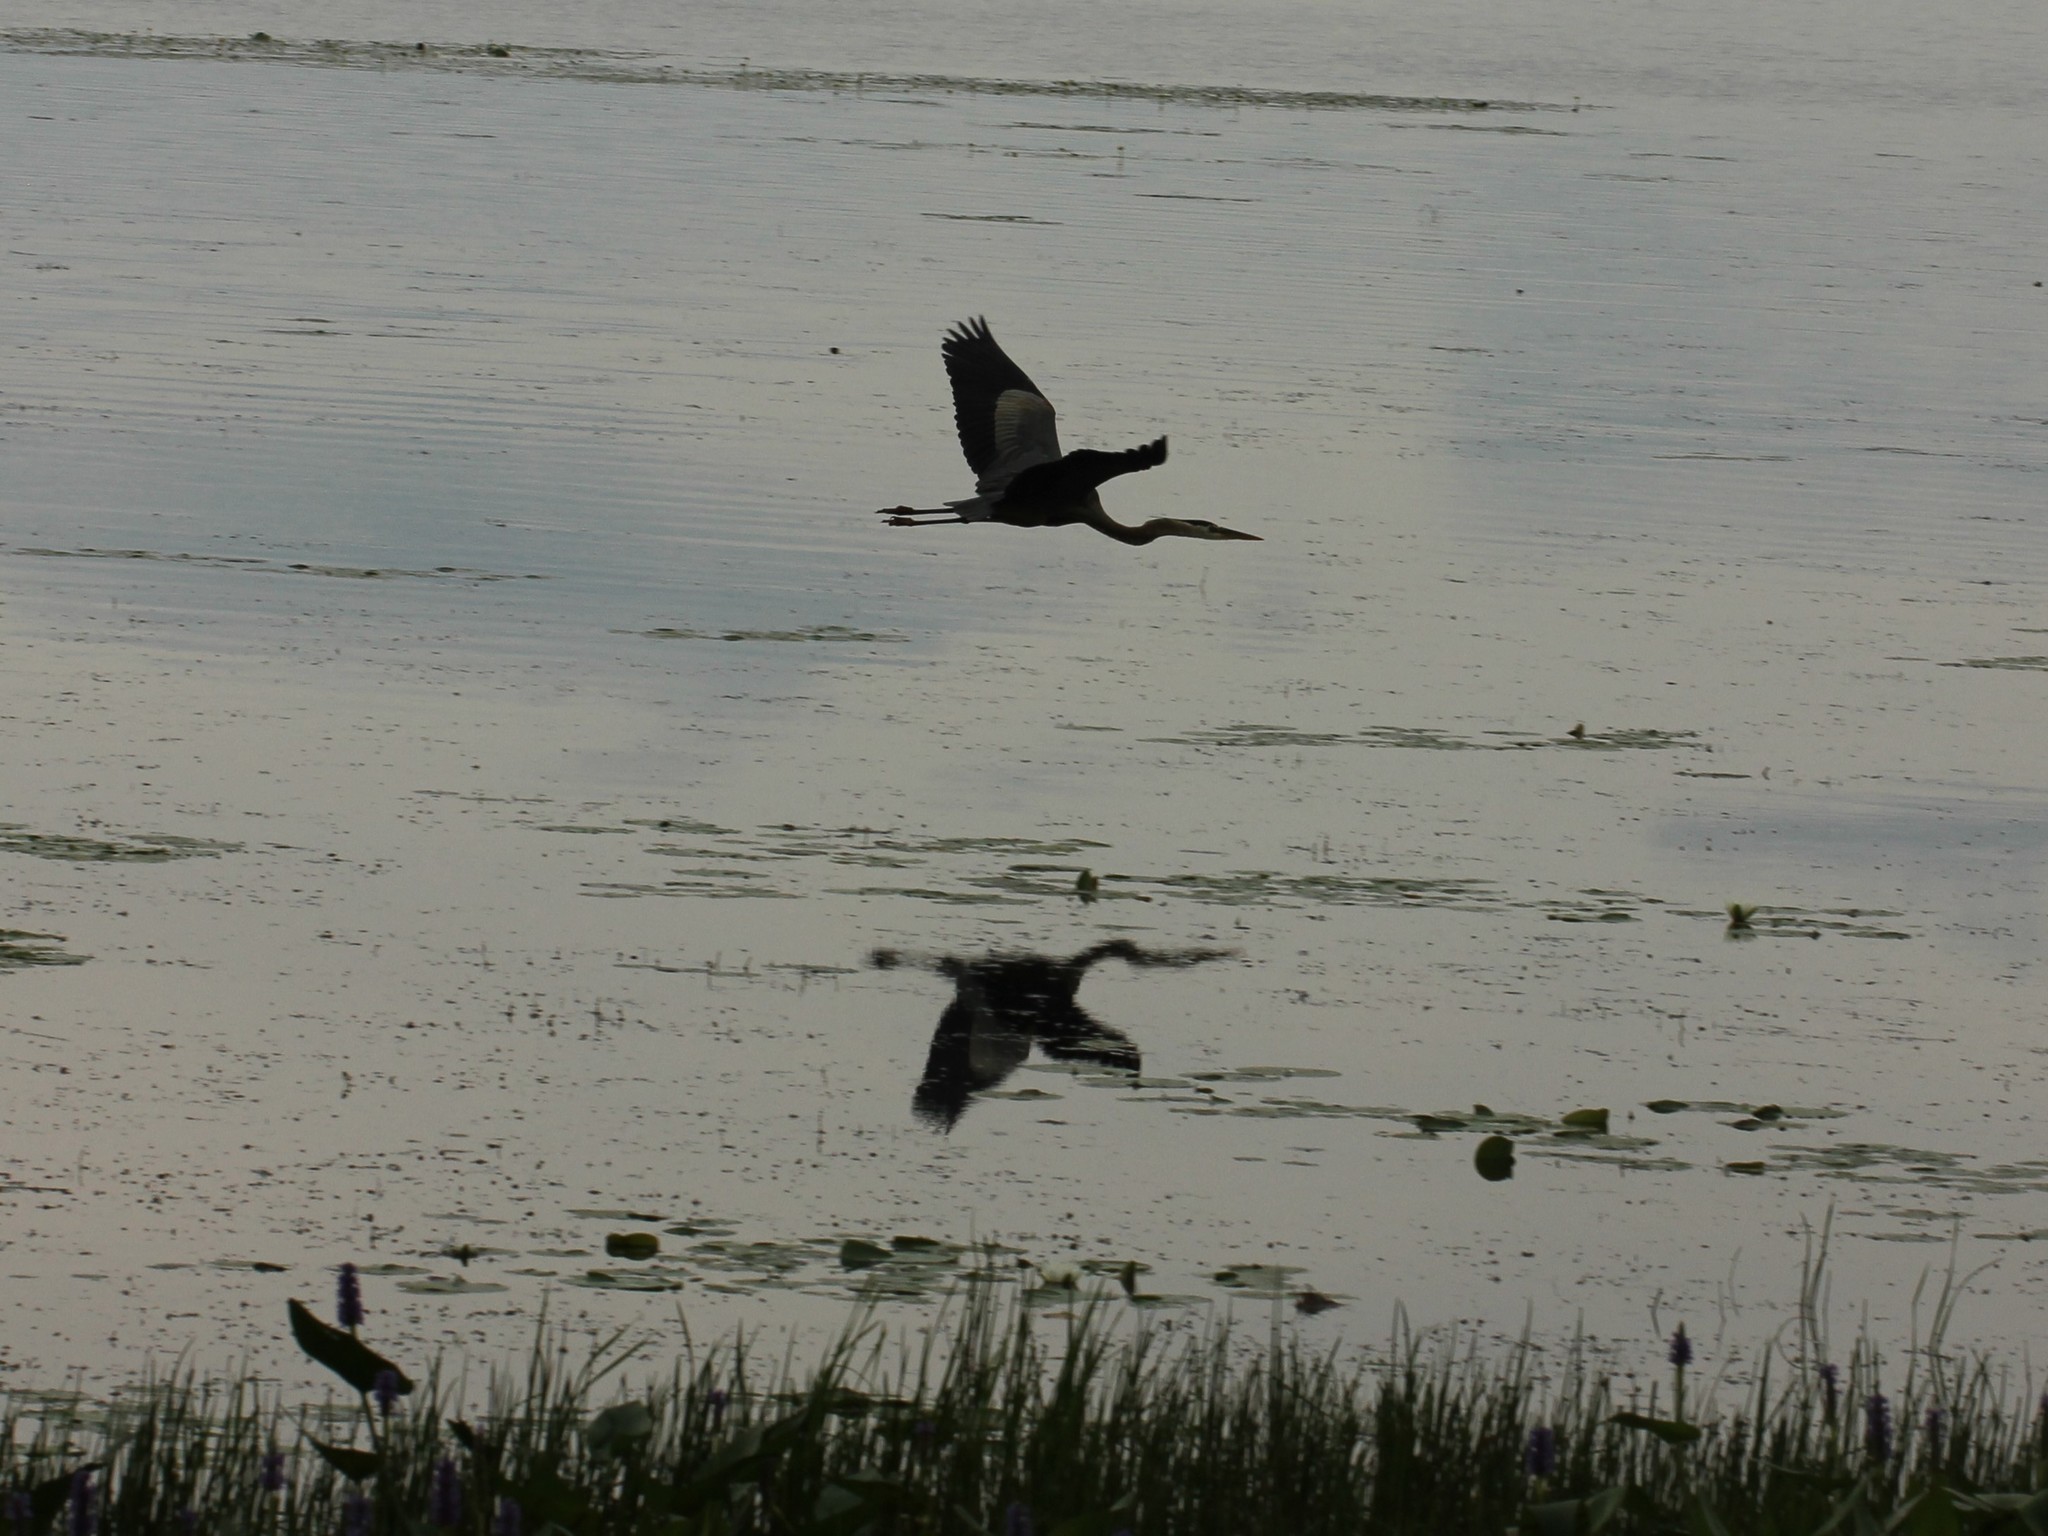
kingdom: Animalia
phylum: Chordata
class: Aves
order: Pelecaniformes
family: Ardeidae
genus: Ardea
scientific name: Ardea herodias
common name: Great blue heron
